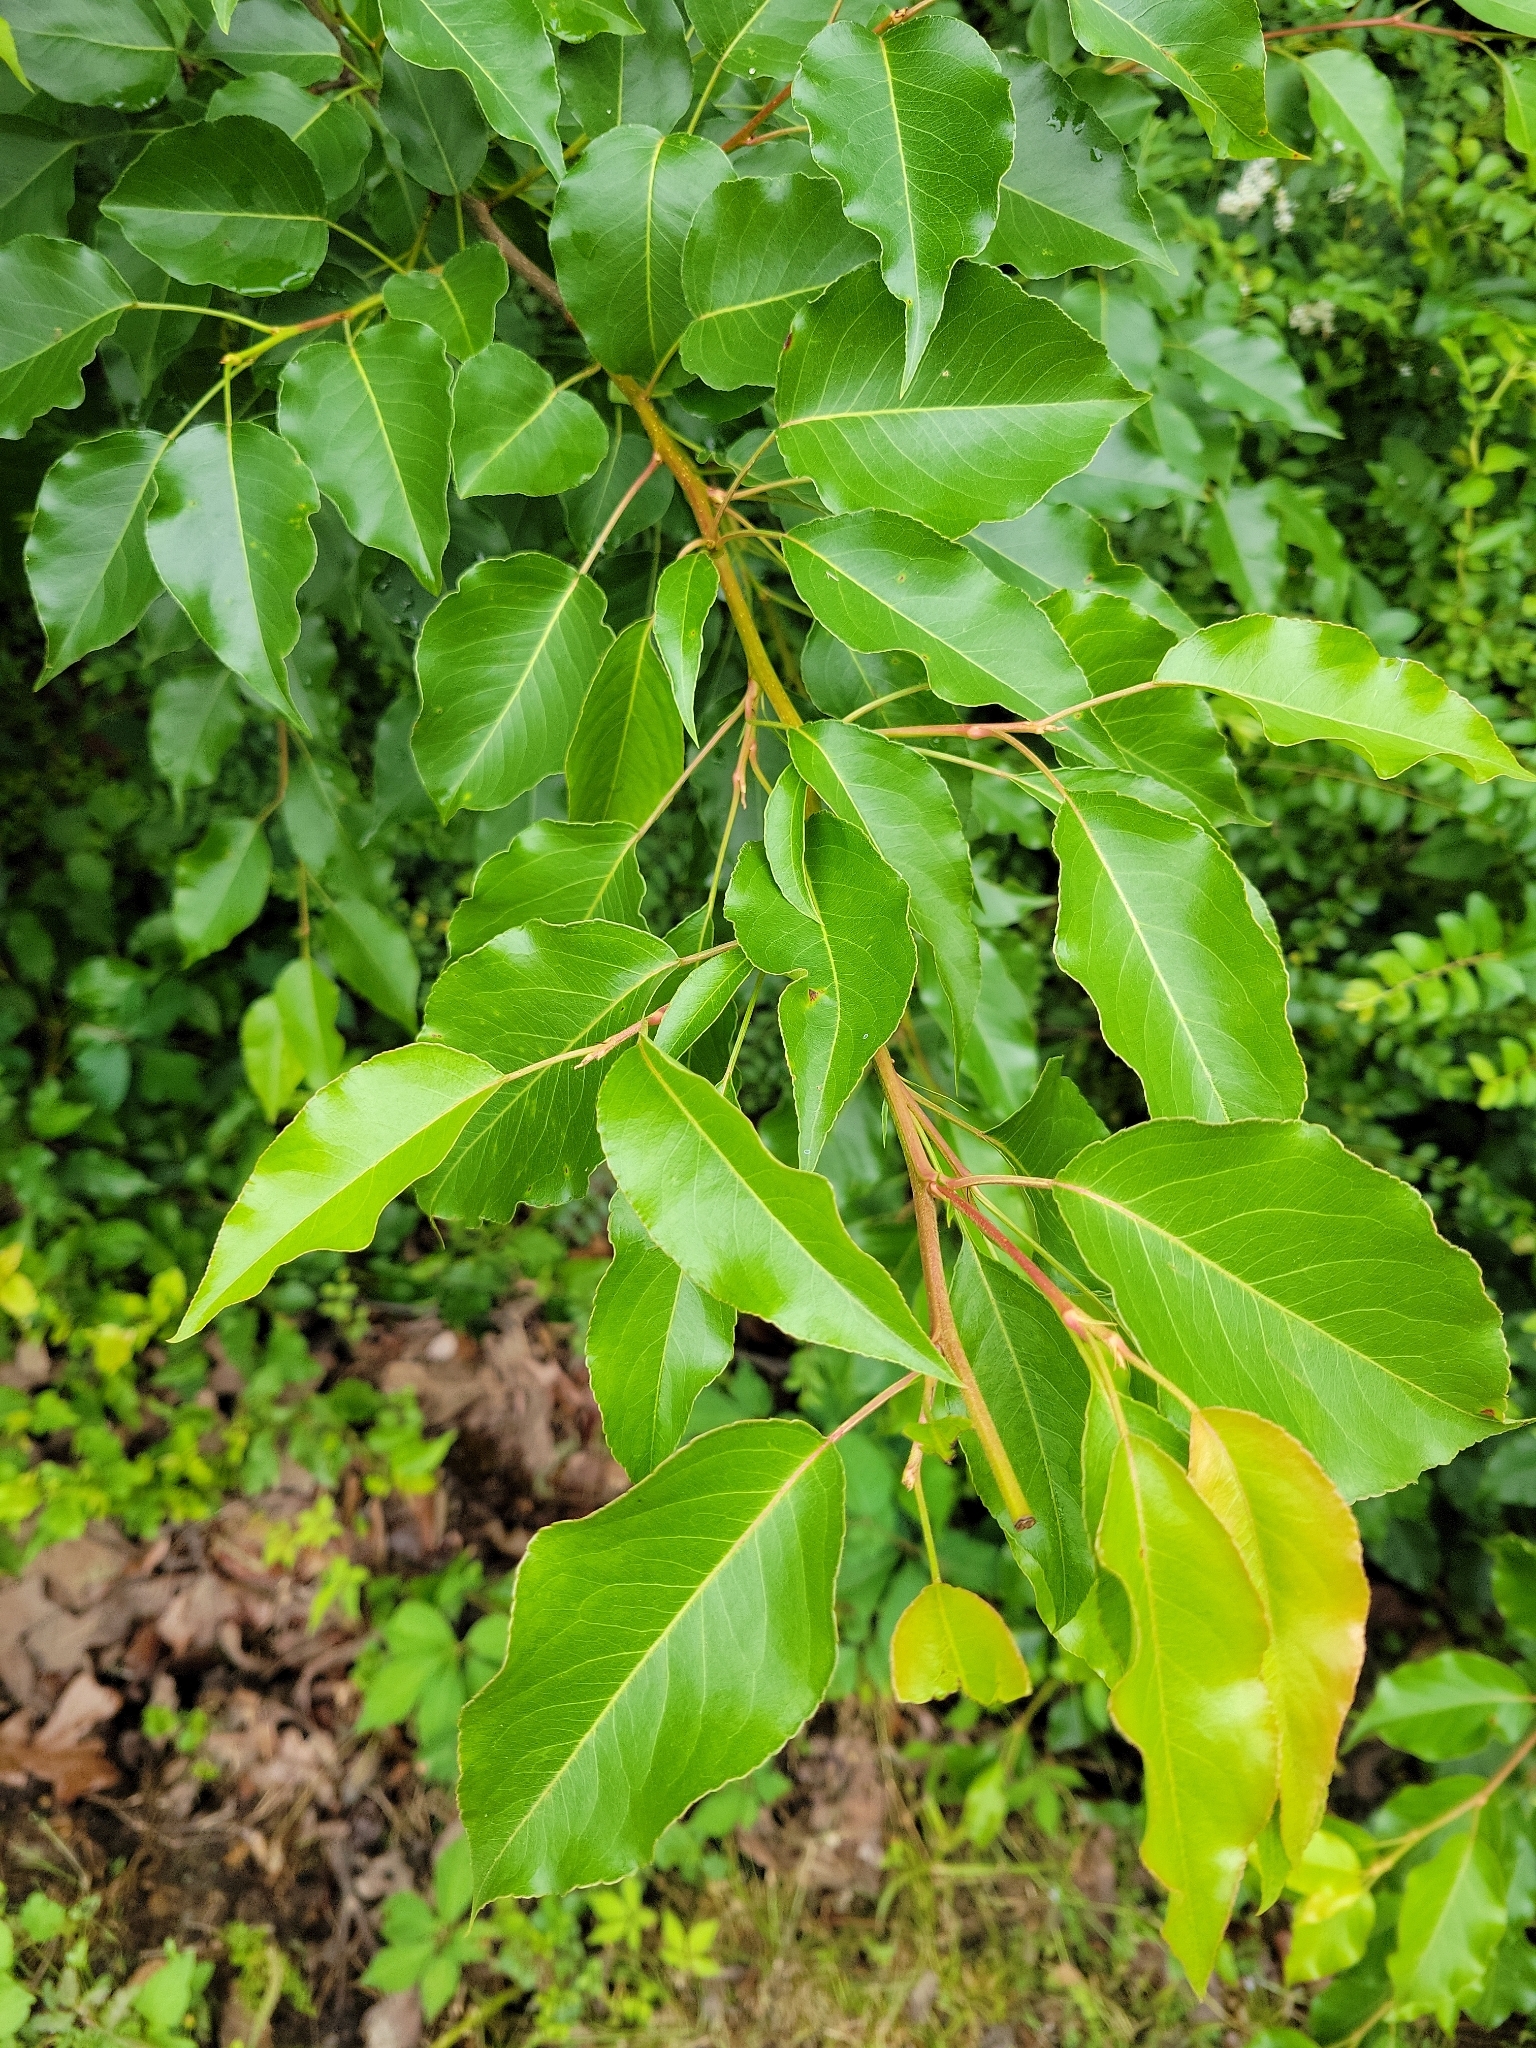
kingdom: Plantae
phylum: Tracheophyta
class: Magnoliopsida
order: Rosales
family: Rosaceae
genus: Pyrus
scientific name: Pyrus calleryana
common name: Callery pear
